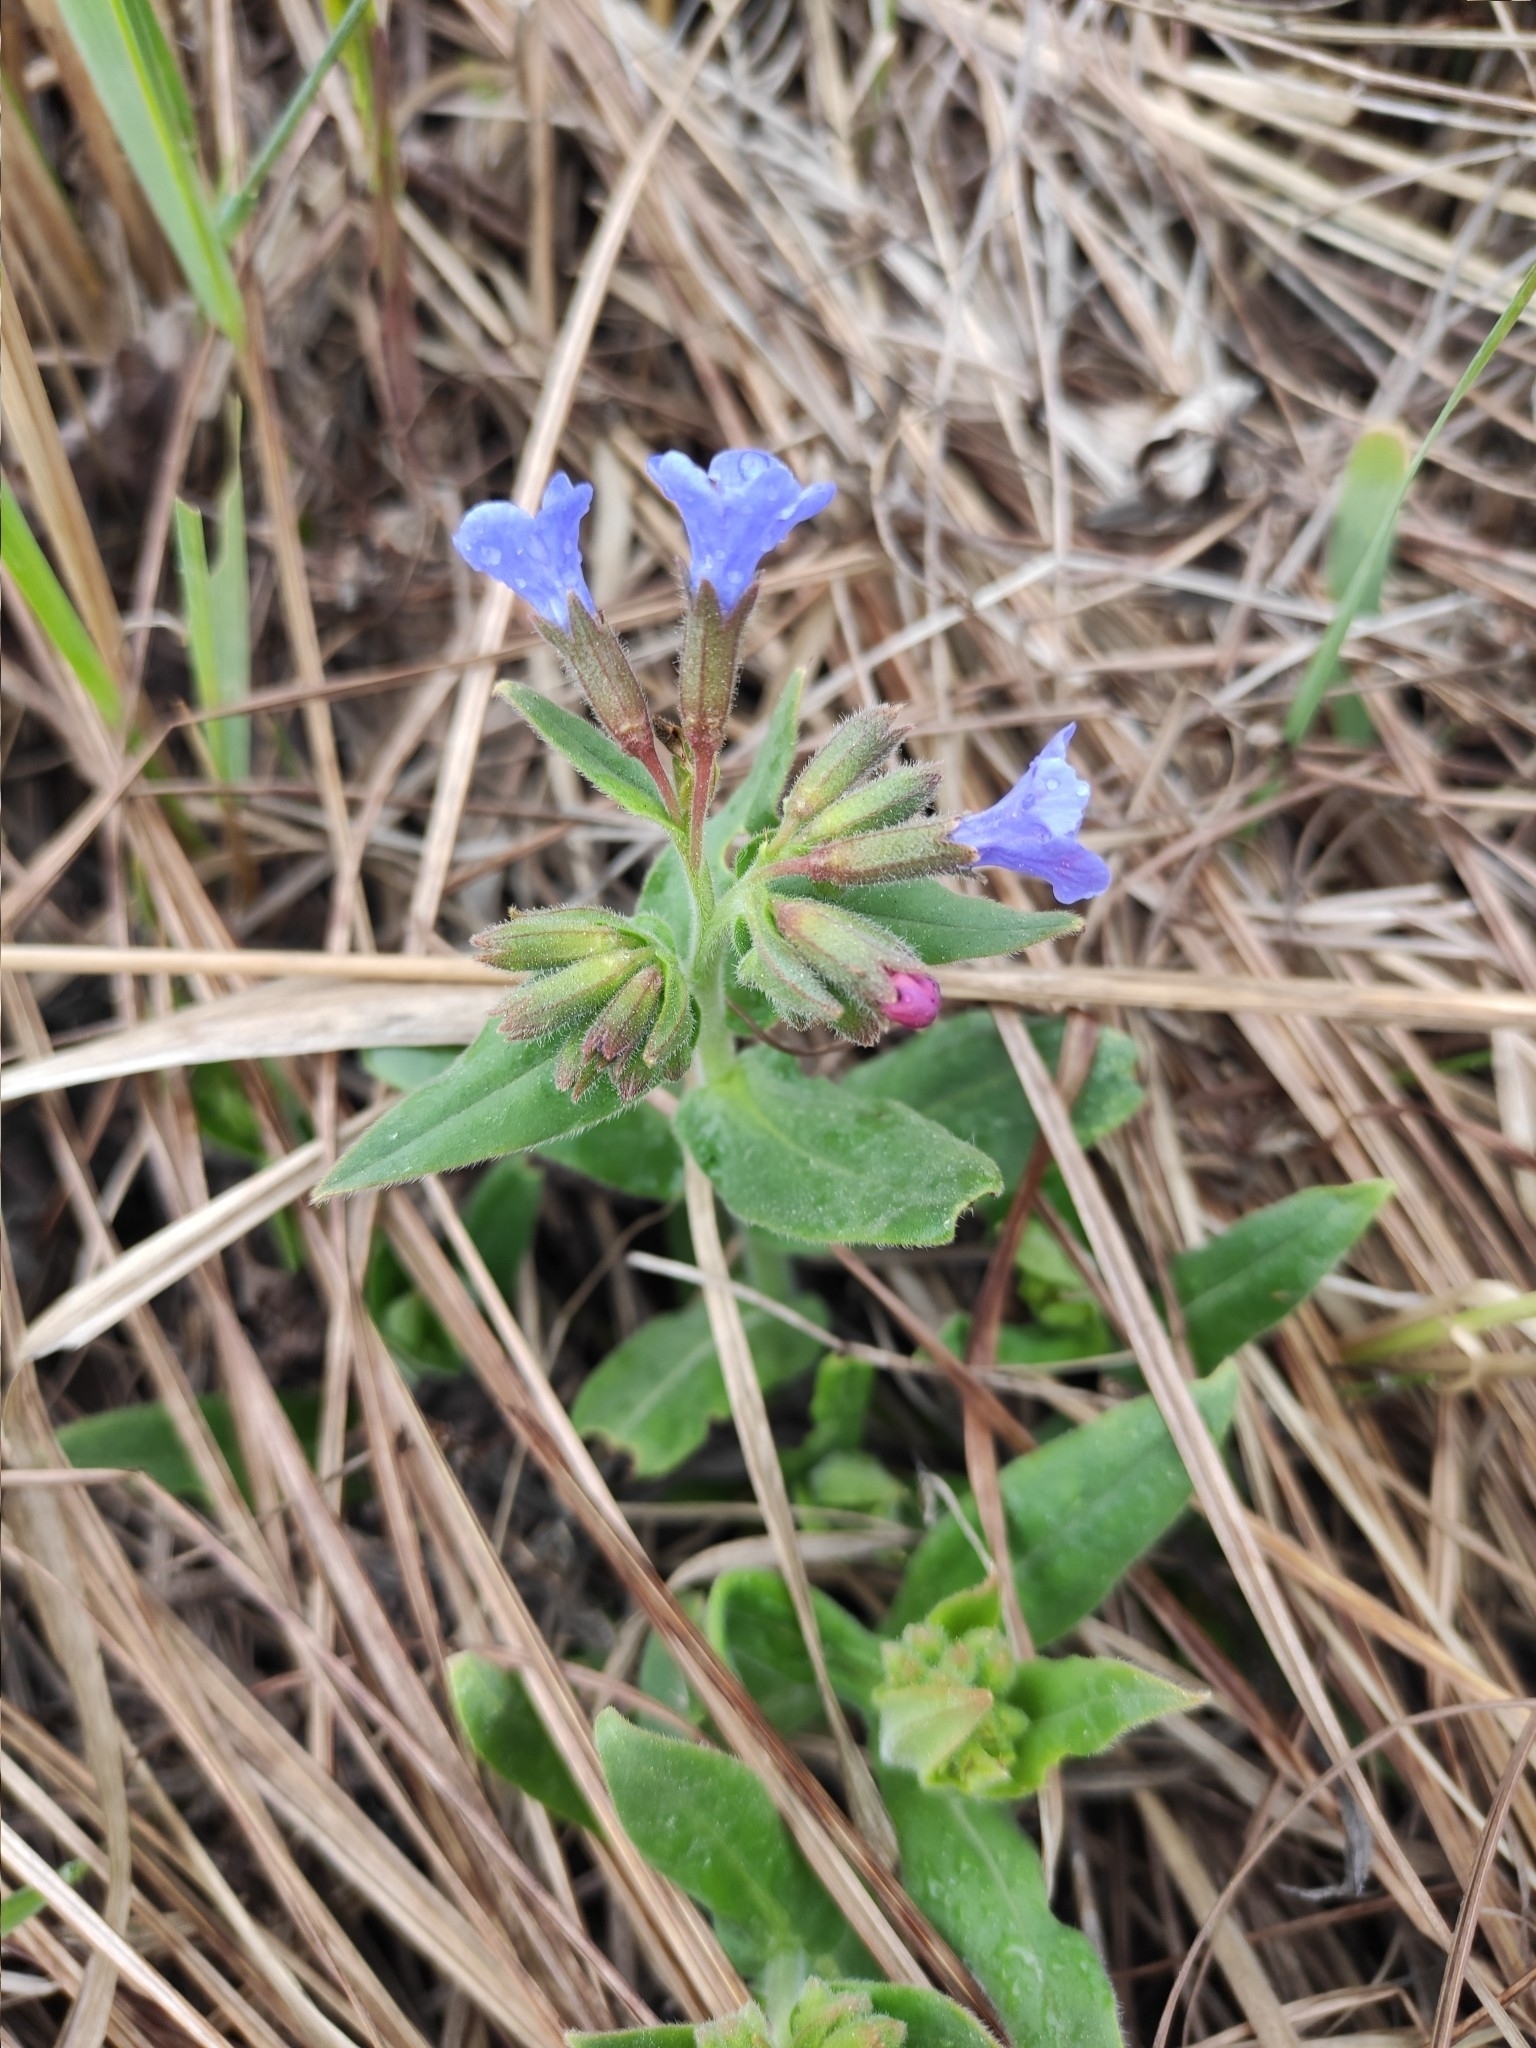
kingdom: Plantae
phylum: Tracheophyta
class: Magnoliopsida
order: Boraginales
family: Boraginaceae
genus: Pulmonaria
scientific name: Pulmonaria mollis
